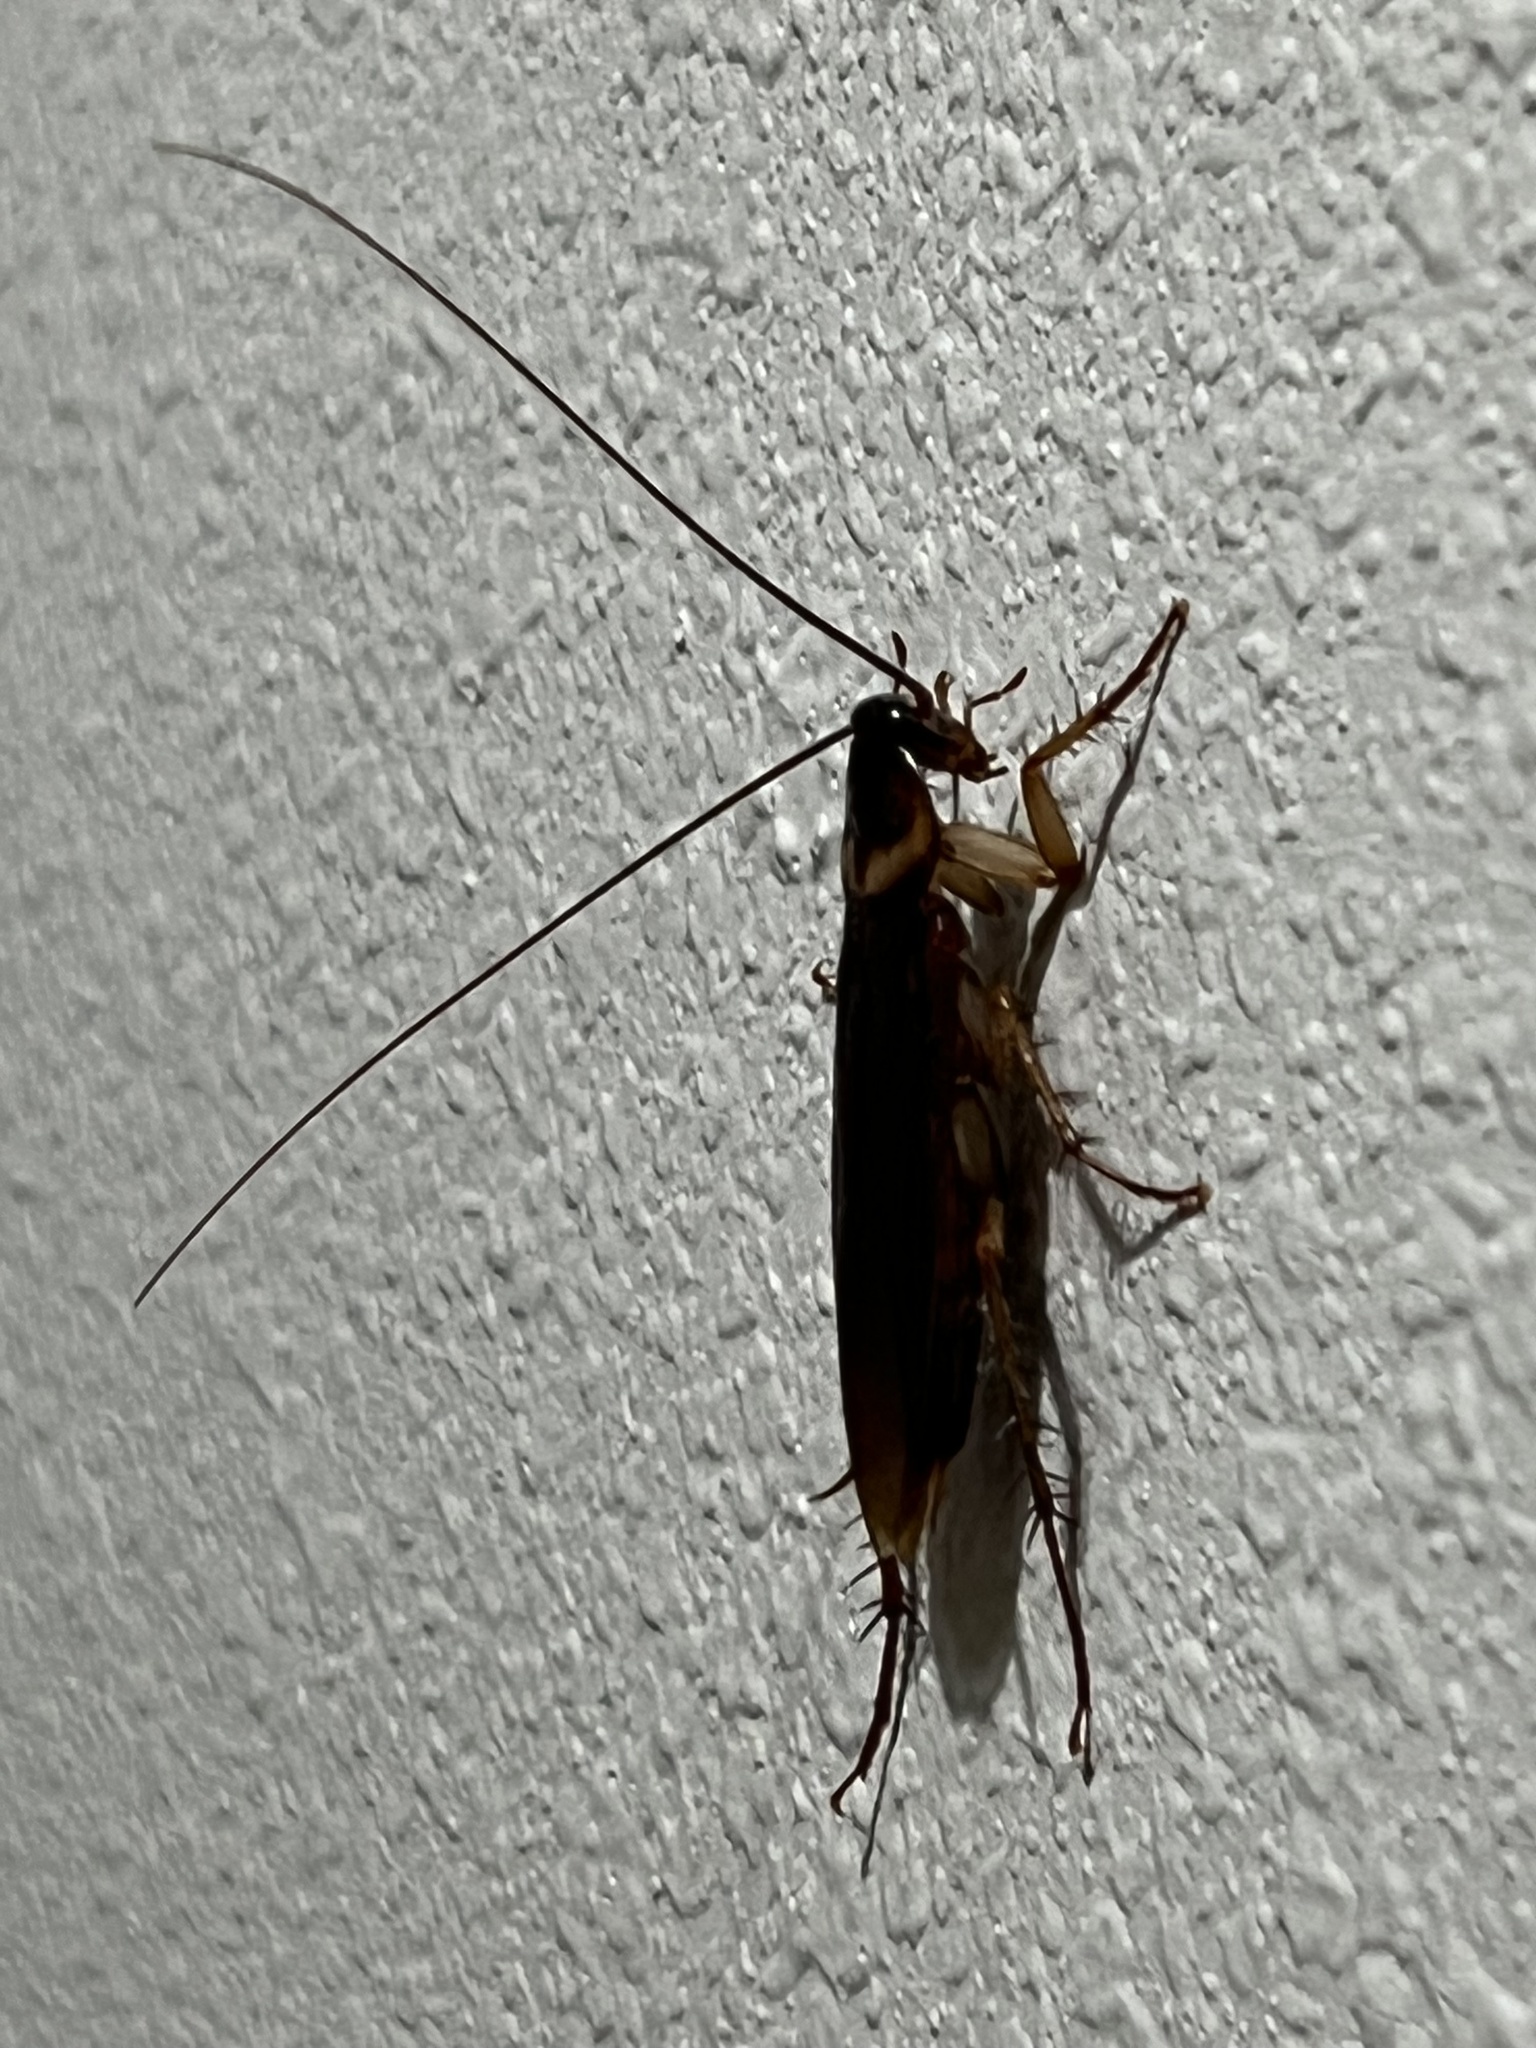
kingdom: Animalia
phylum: Arthropoda
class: Insecta
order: Blattodea
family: Blattidae
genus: Periplaneta
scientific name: Periplaneta americana
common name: American cockroach
